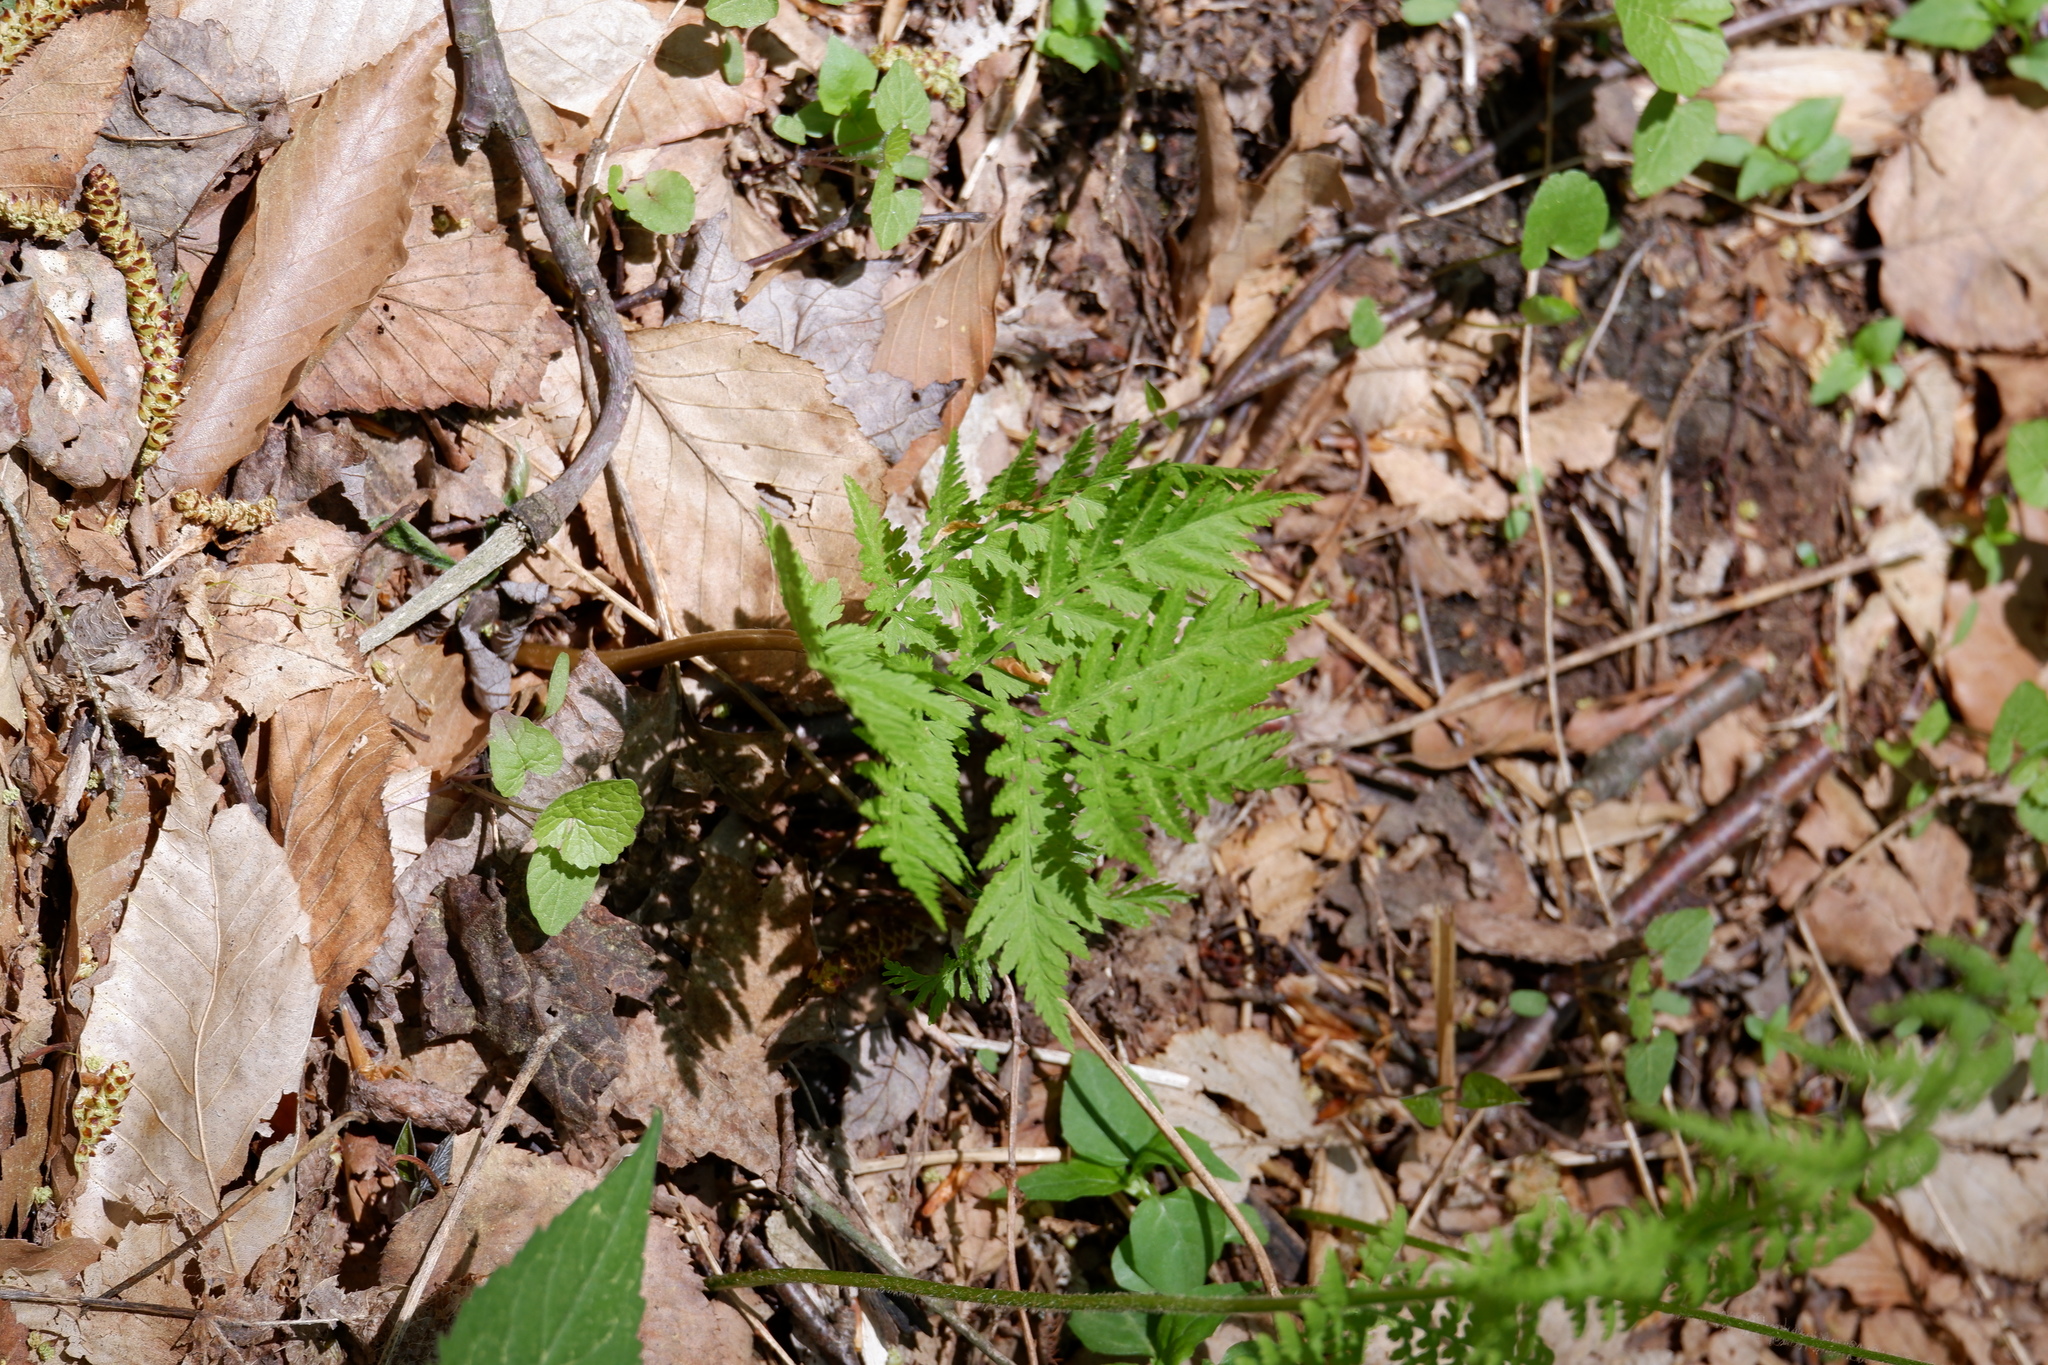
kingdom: Plantae
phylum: Tracheophyta
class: Polypodiopsida
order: Ophioglossales
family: Ophioglossaceae
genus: Botrypus
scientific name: Botrypus virginianus
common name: Common grapefern
